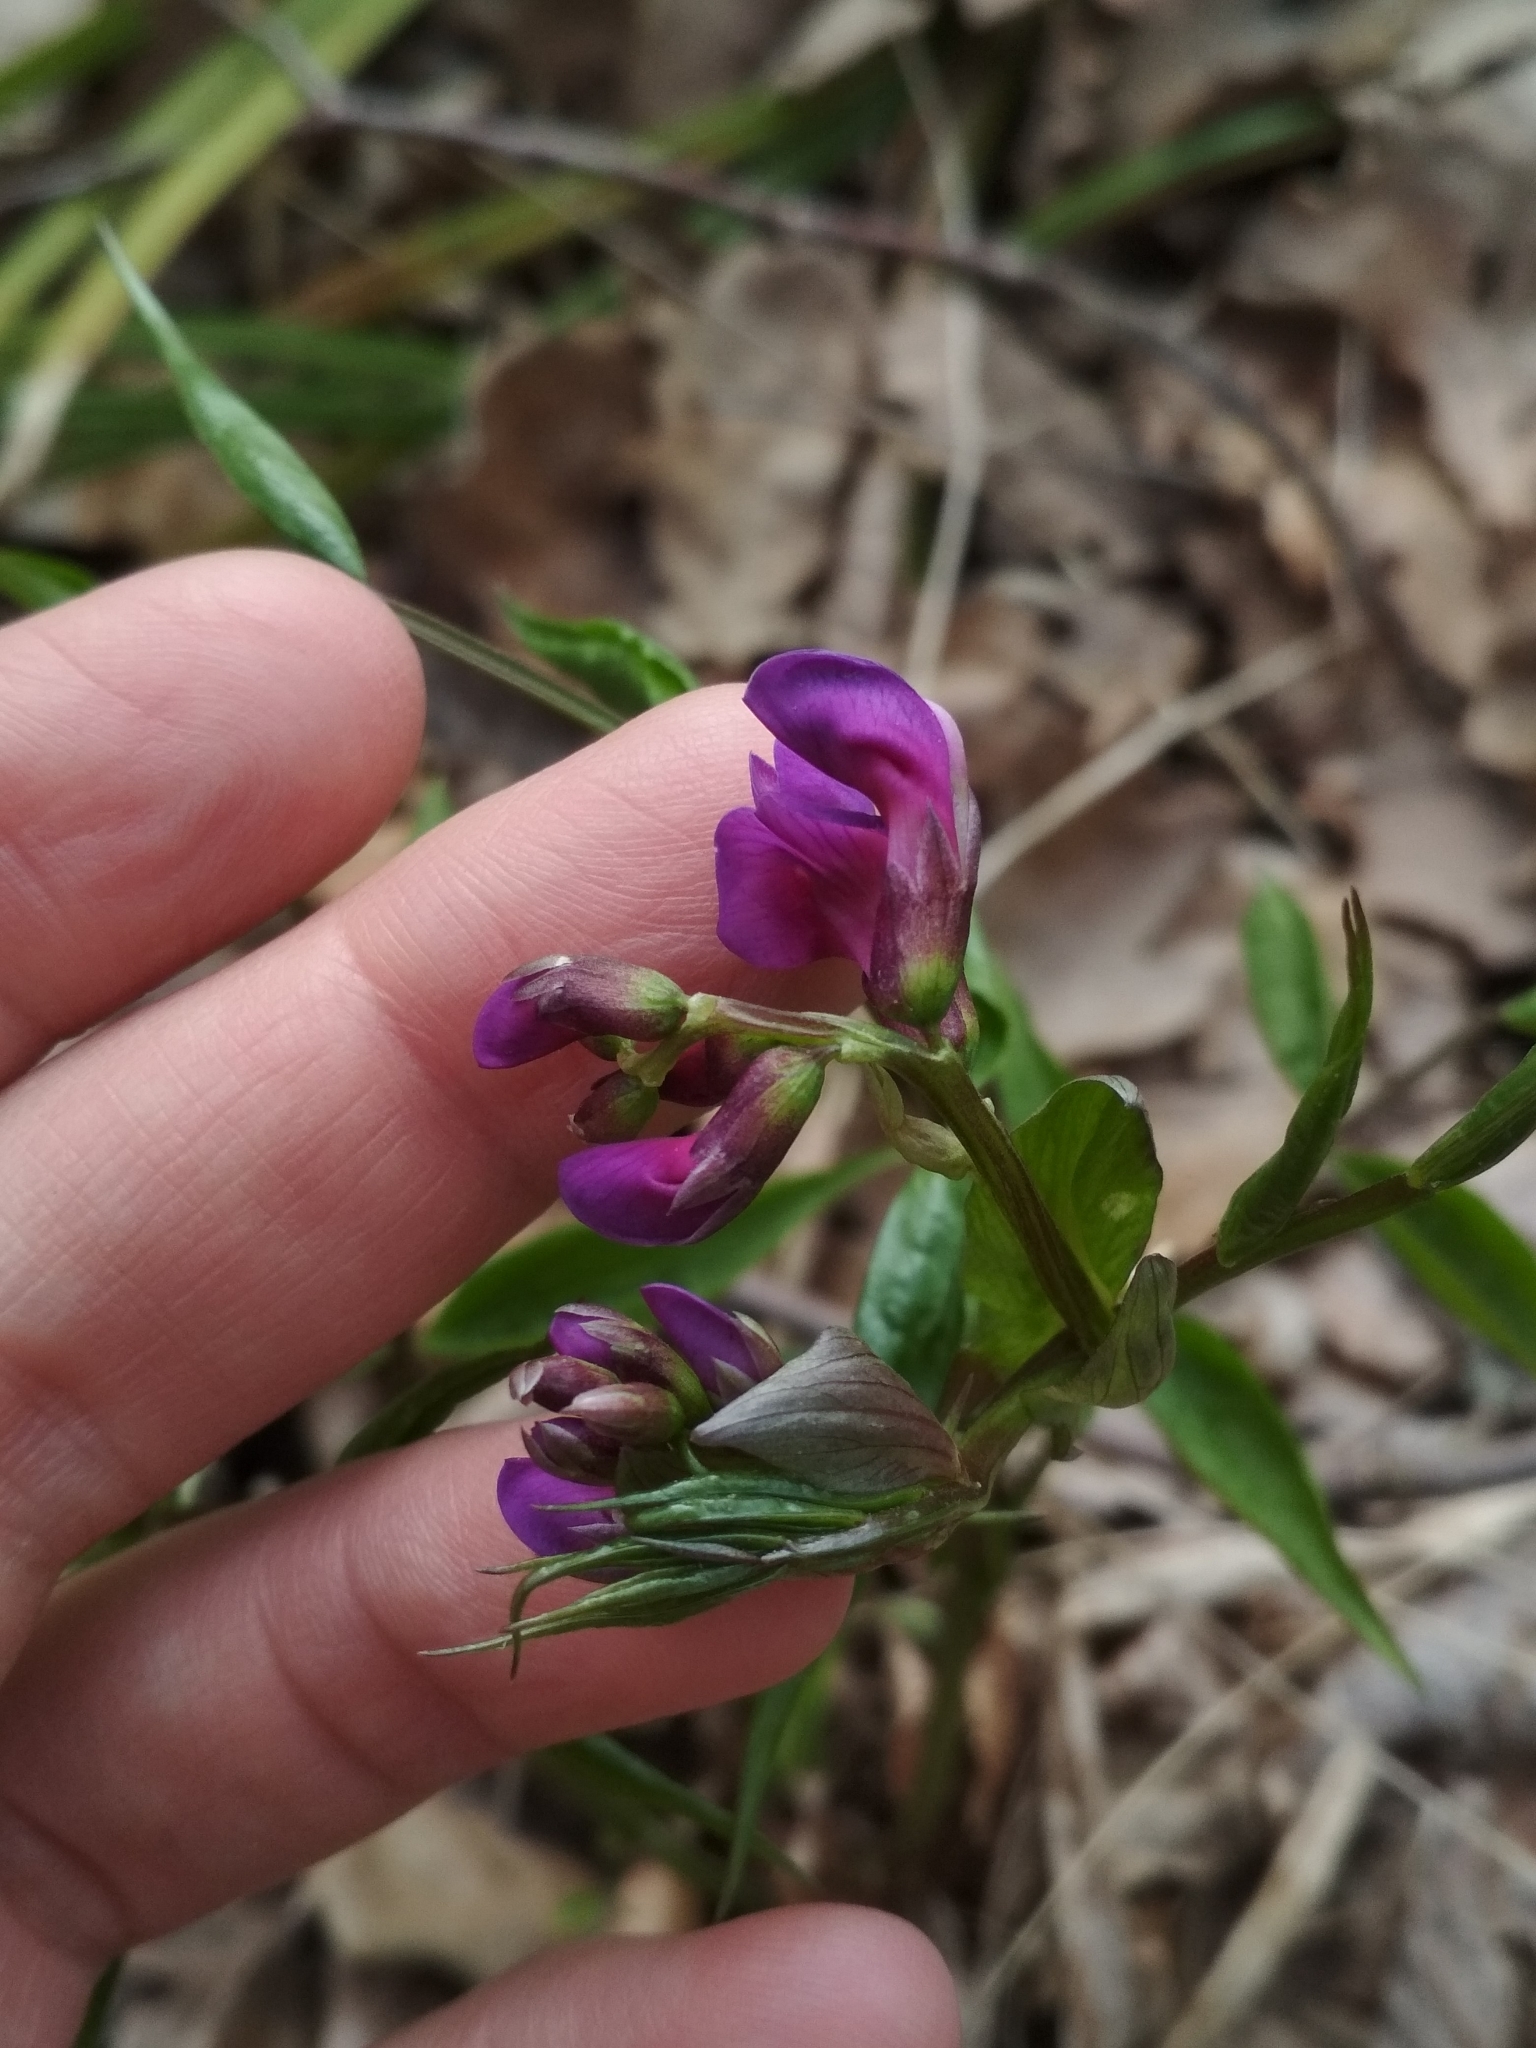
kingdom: Plantae
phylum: Tracheophyta
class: Magnoliopsida
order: Fabales
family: Fabaceae
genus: Lathyrus
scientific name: Lathyrus vernus
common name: Spring pea
